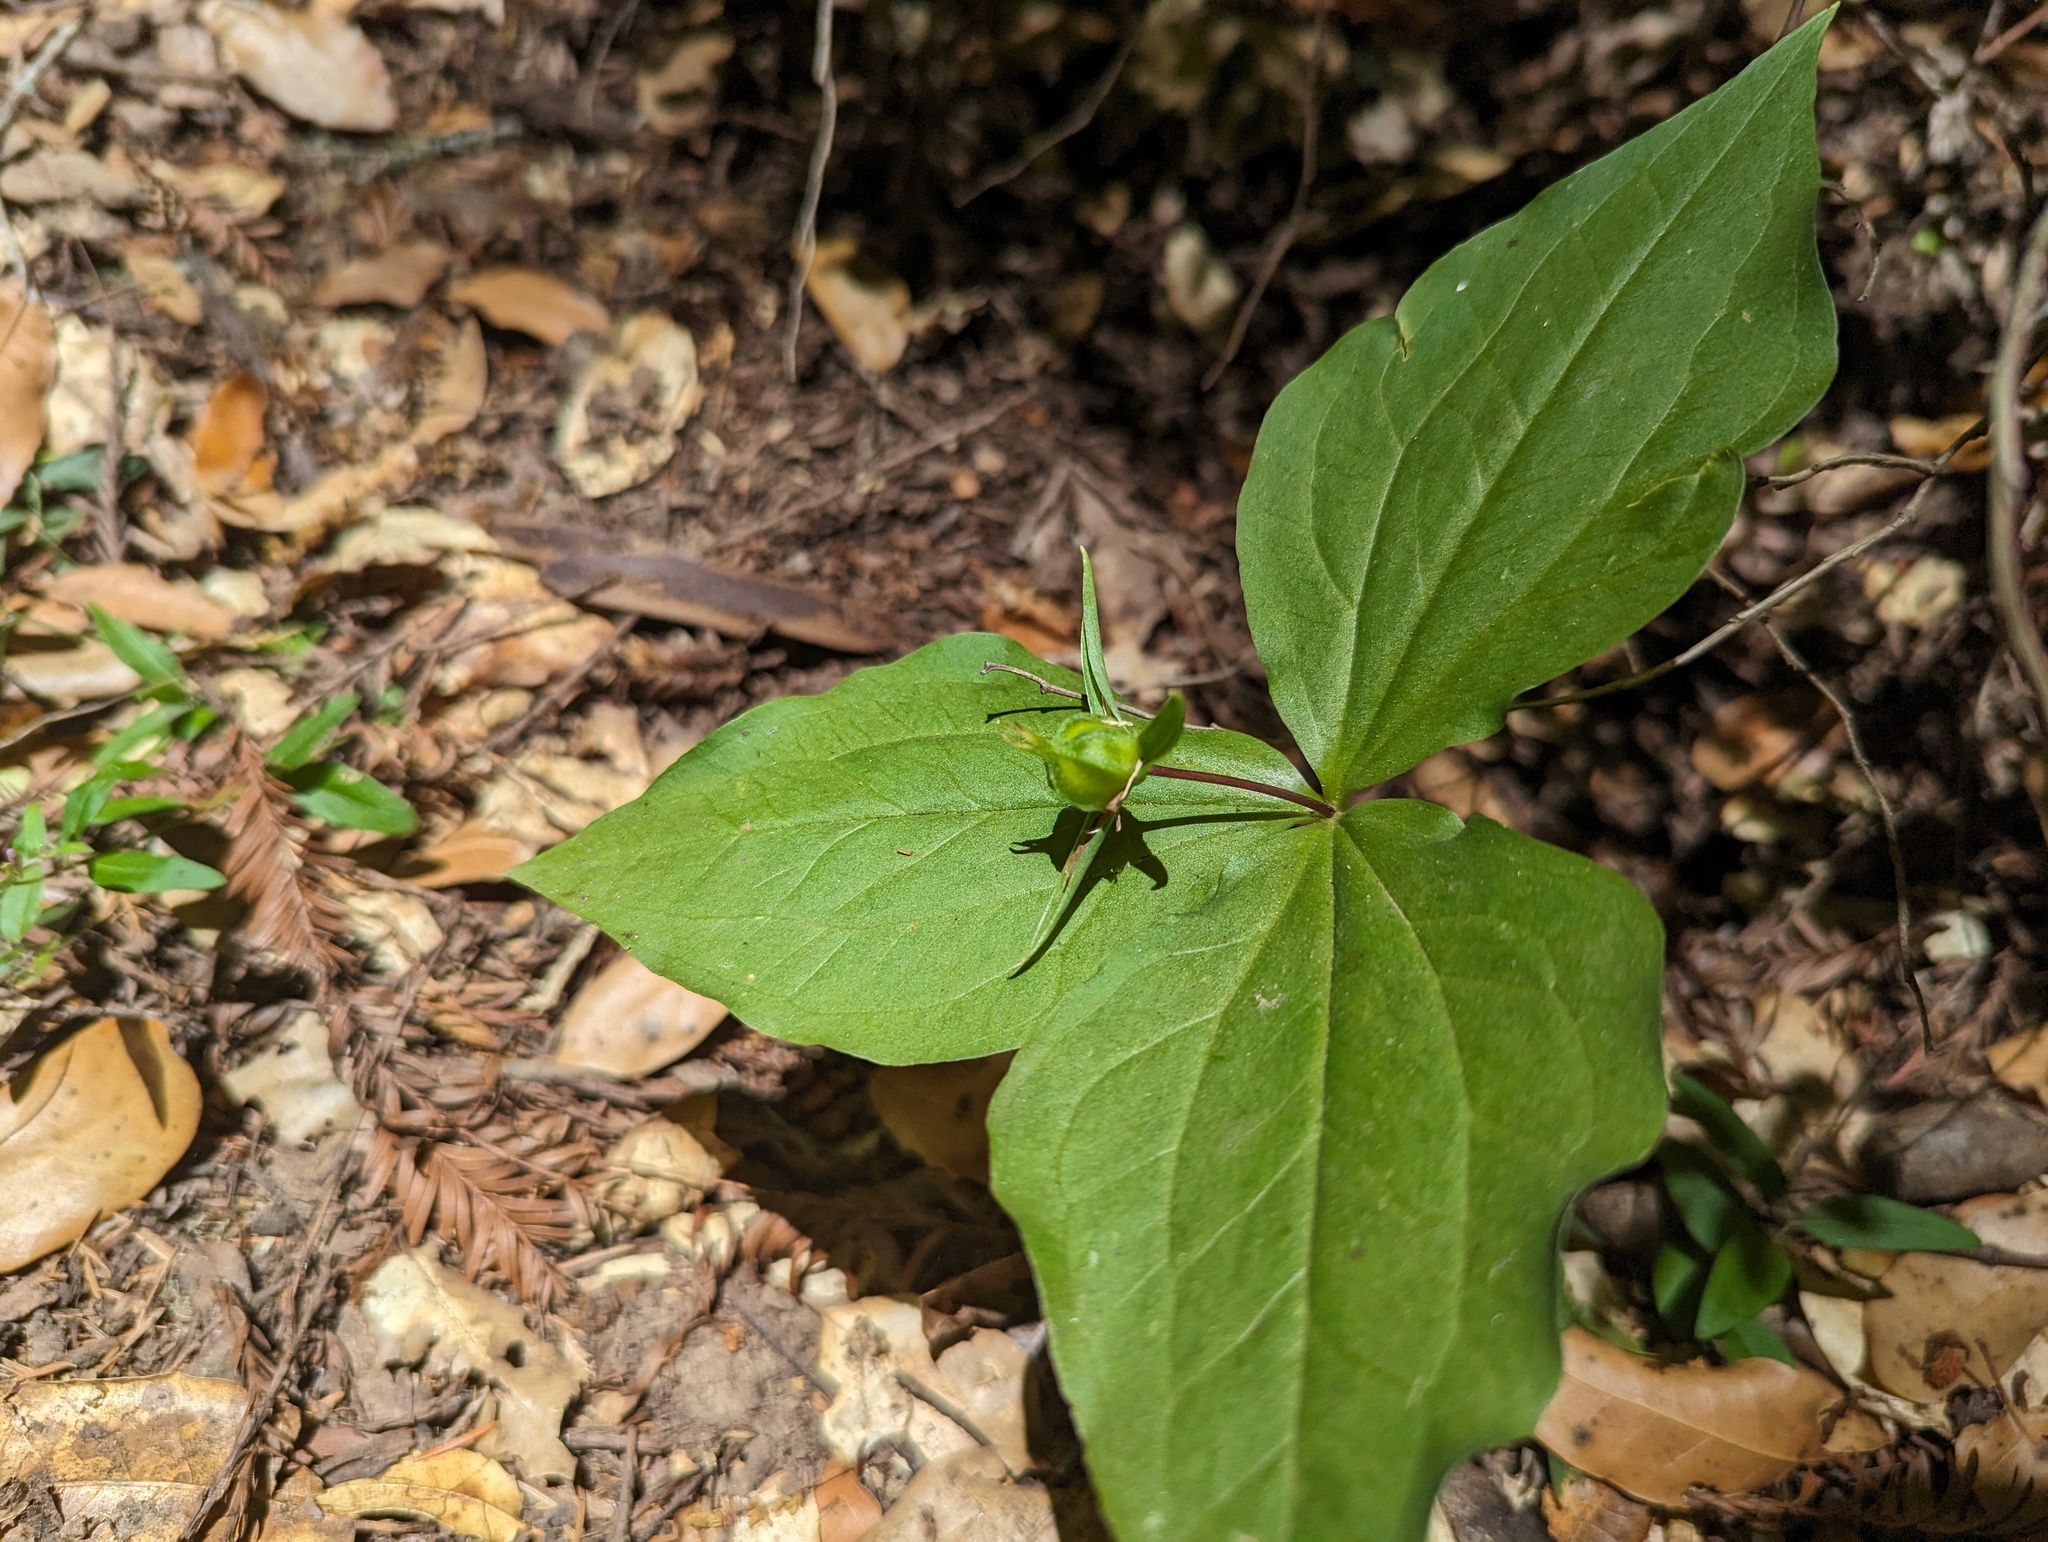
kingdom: Plantae
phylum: Tracheophyta
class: Liliopsida
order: Liliales
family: Melanthiaceae
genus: Trillium
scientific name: Trillium ovatum
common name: Pacific trillium
